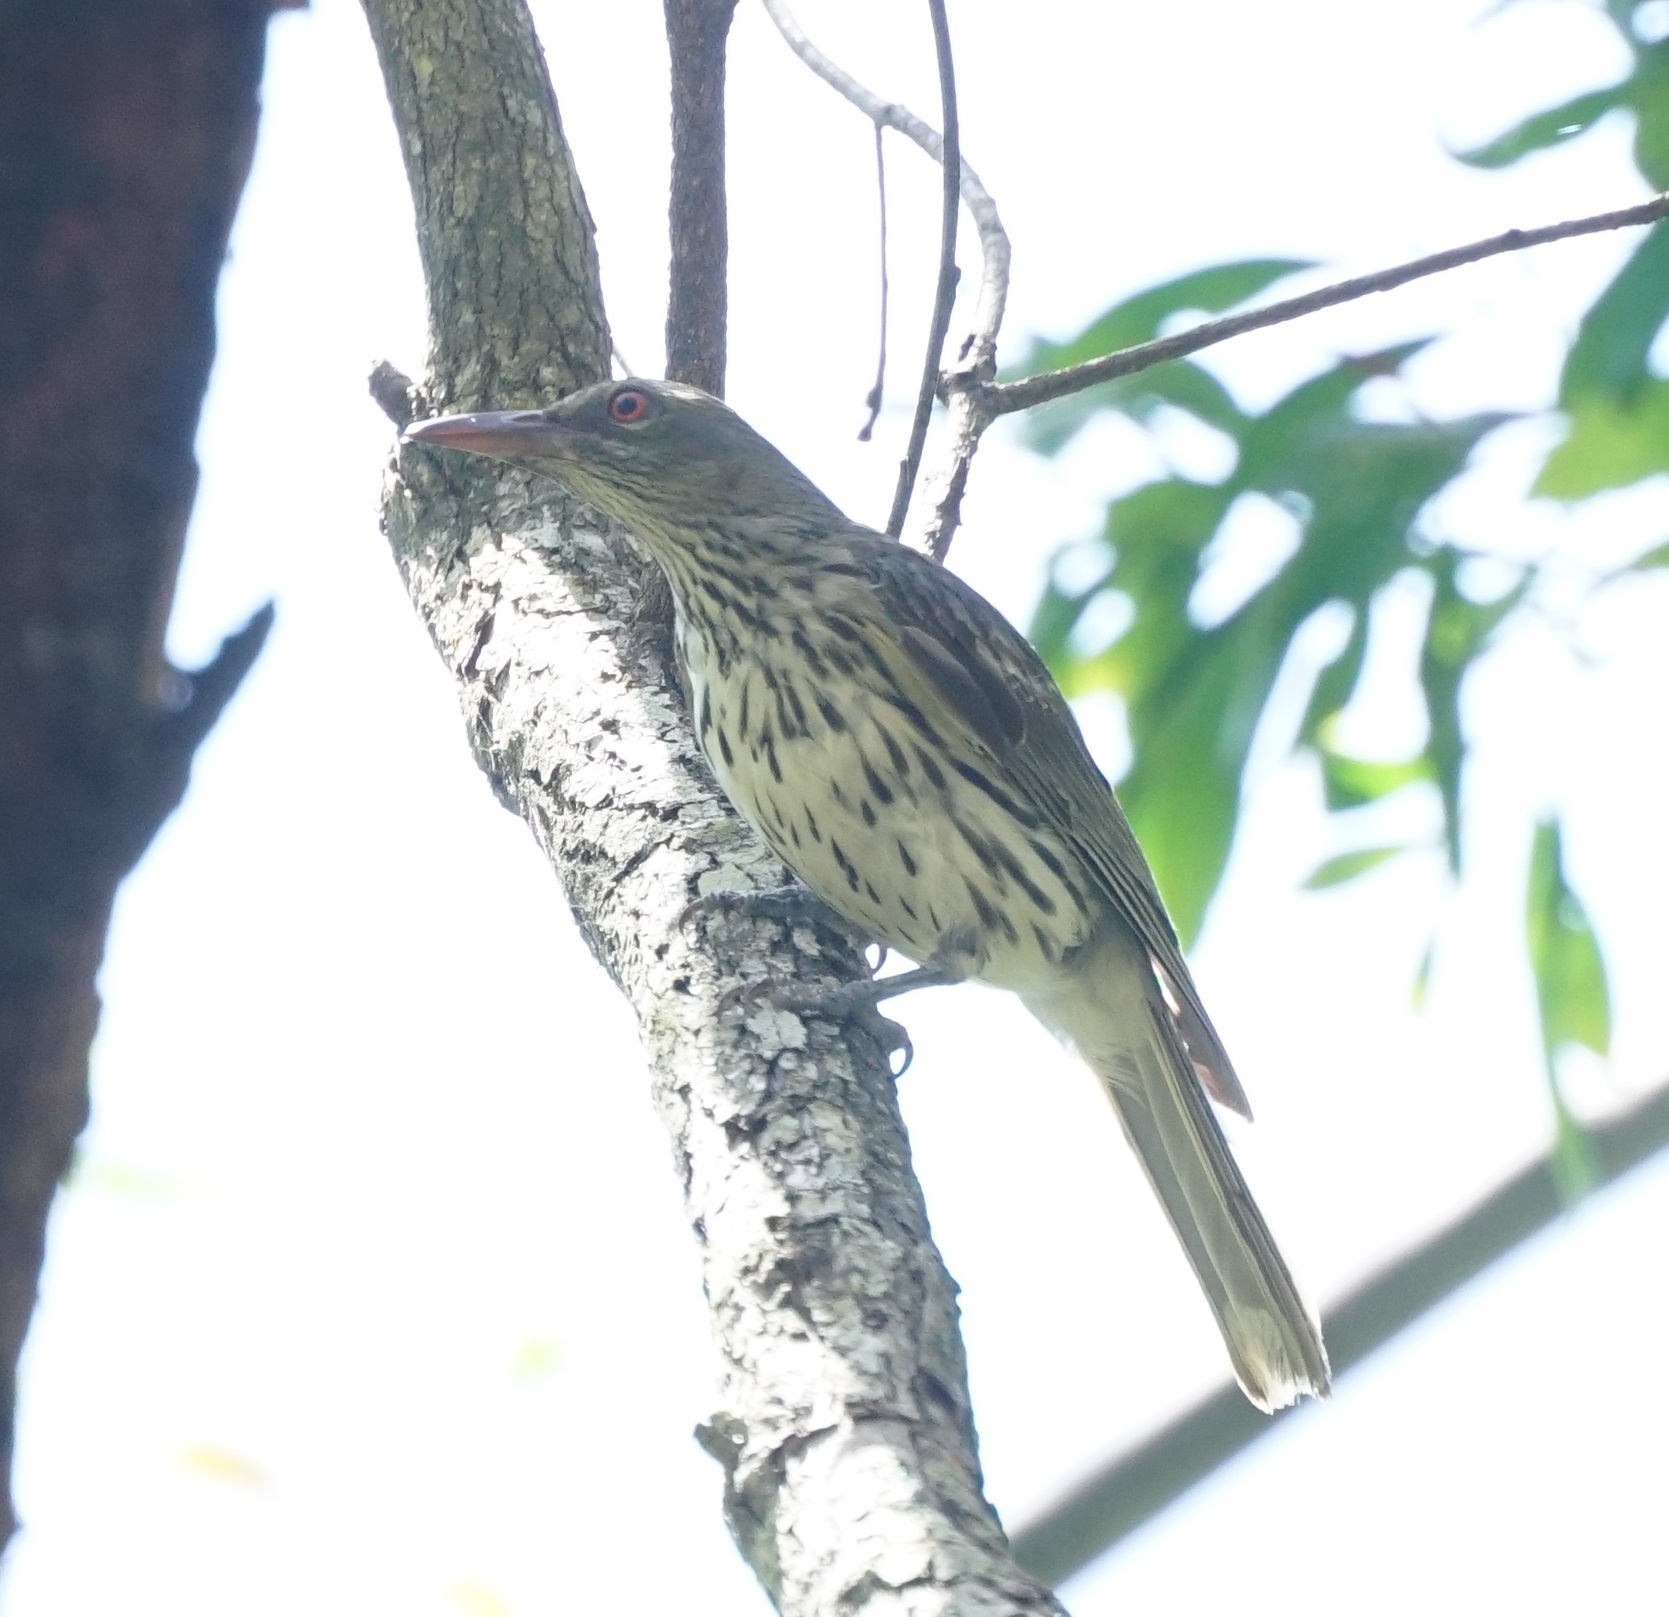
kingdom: Animalia
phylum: Chordata
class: Aves
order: Passeriformes
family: Oriolidae
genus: Oriolus
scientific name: Oriolus sagittatus
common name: Olive-backed oriole
